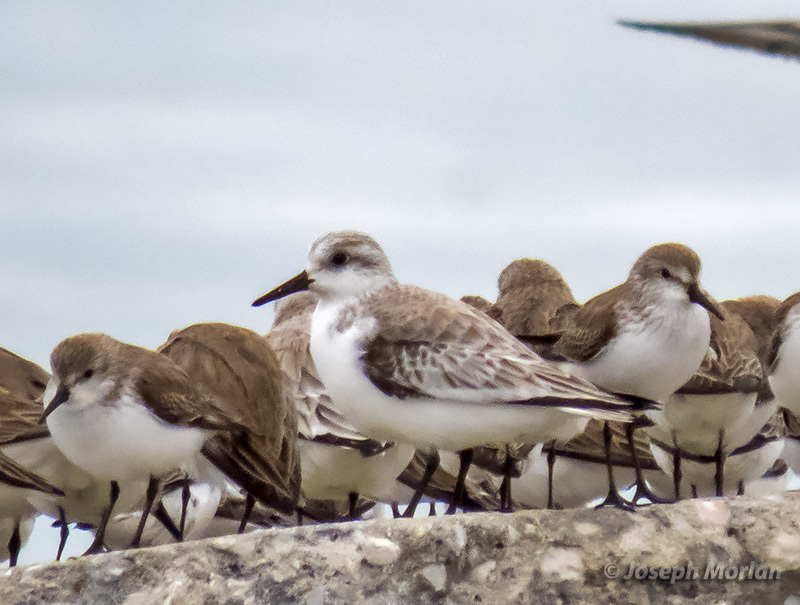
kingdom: Animalia
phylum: Chordata
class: Aves
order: Charadriiformes
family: Scolopacidae
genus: Calidris
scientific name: Calidris alba
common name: Sanderling
